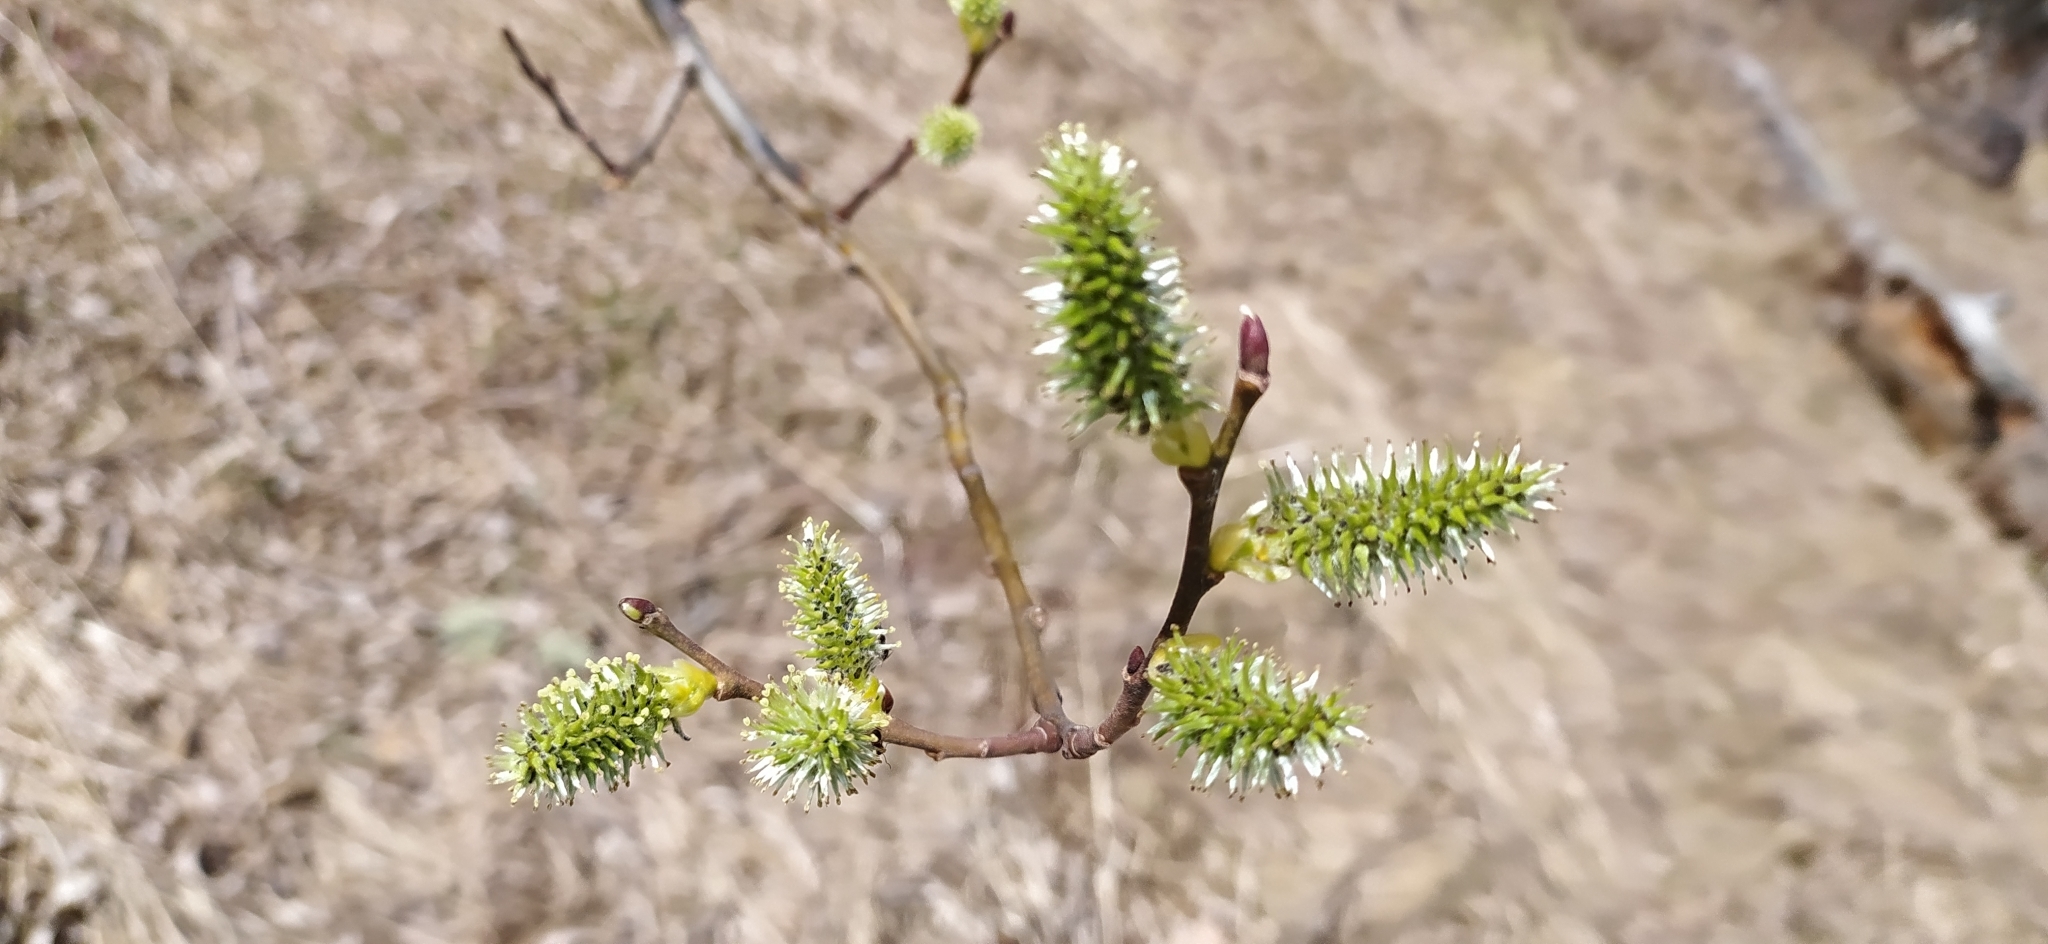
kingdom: Plantae
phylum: Tracheophyta
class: Magnoliopsida
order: Malpighiales
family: Salicaceae
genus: Salix
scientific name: Salix caprea
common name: Goat willow
